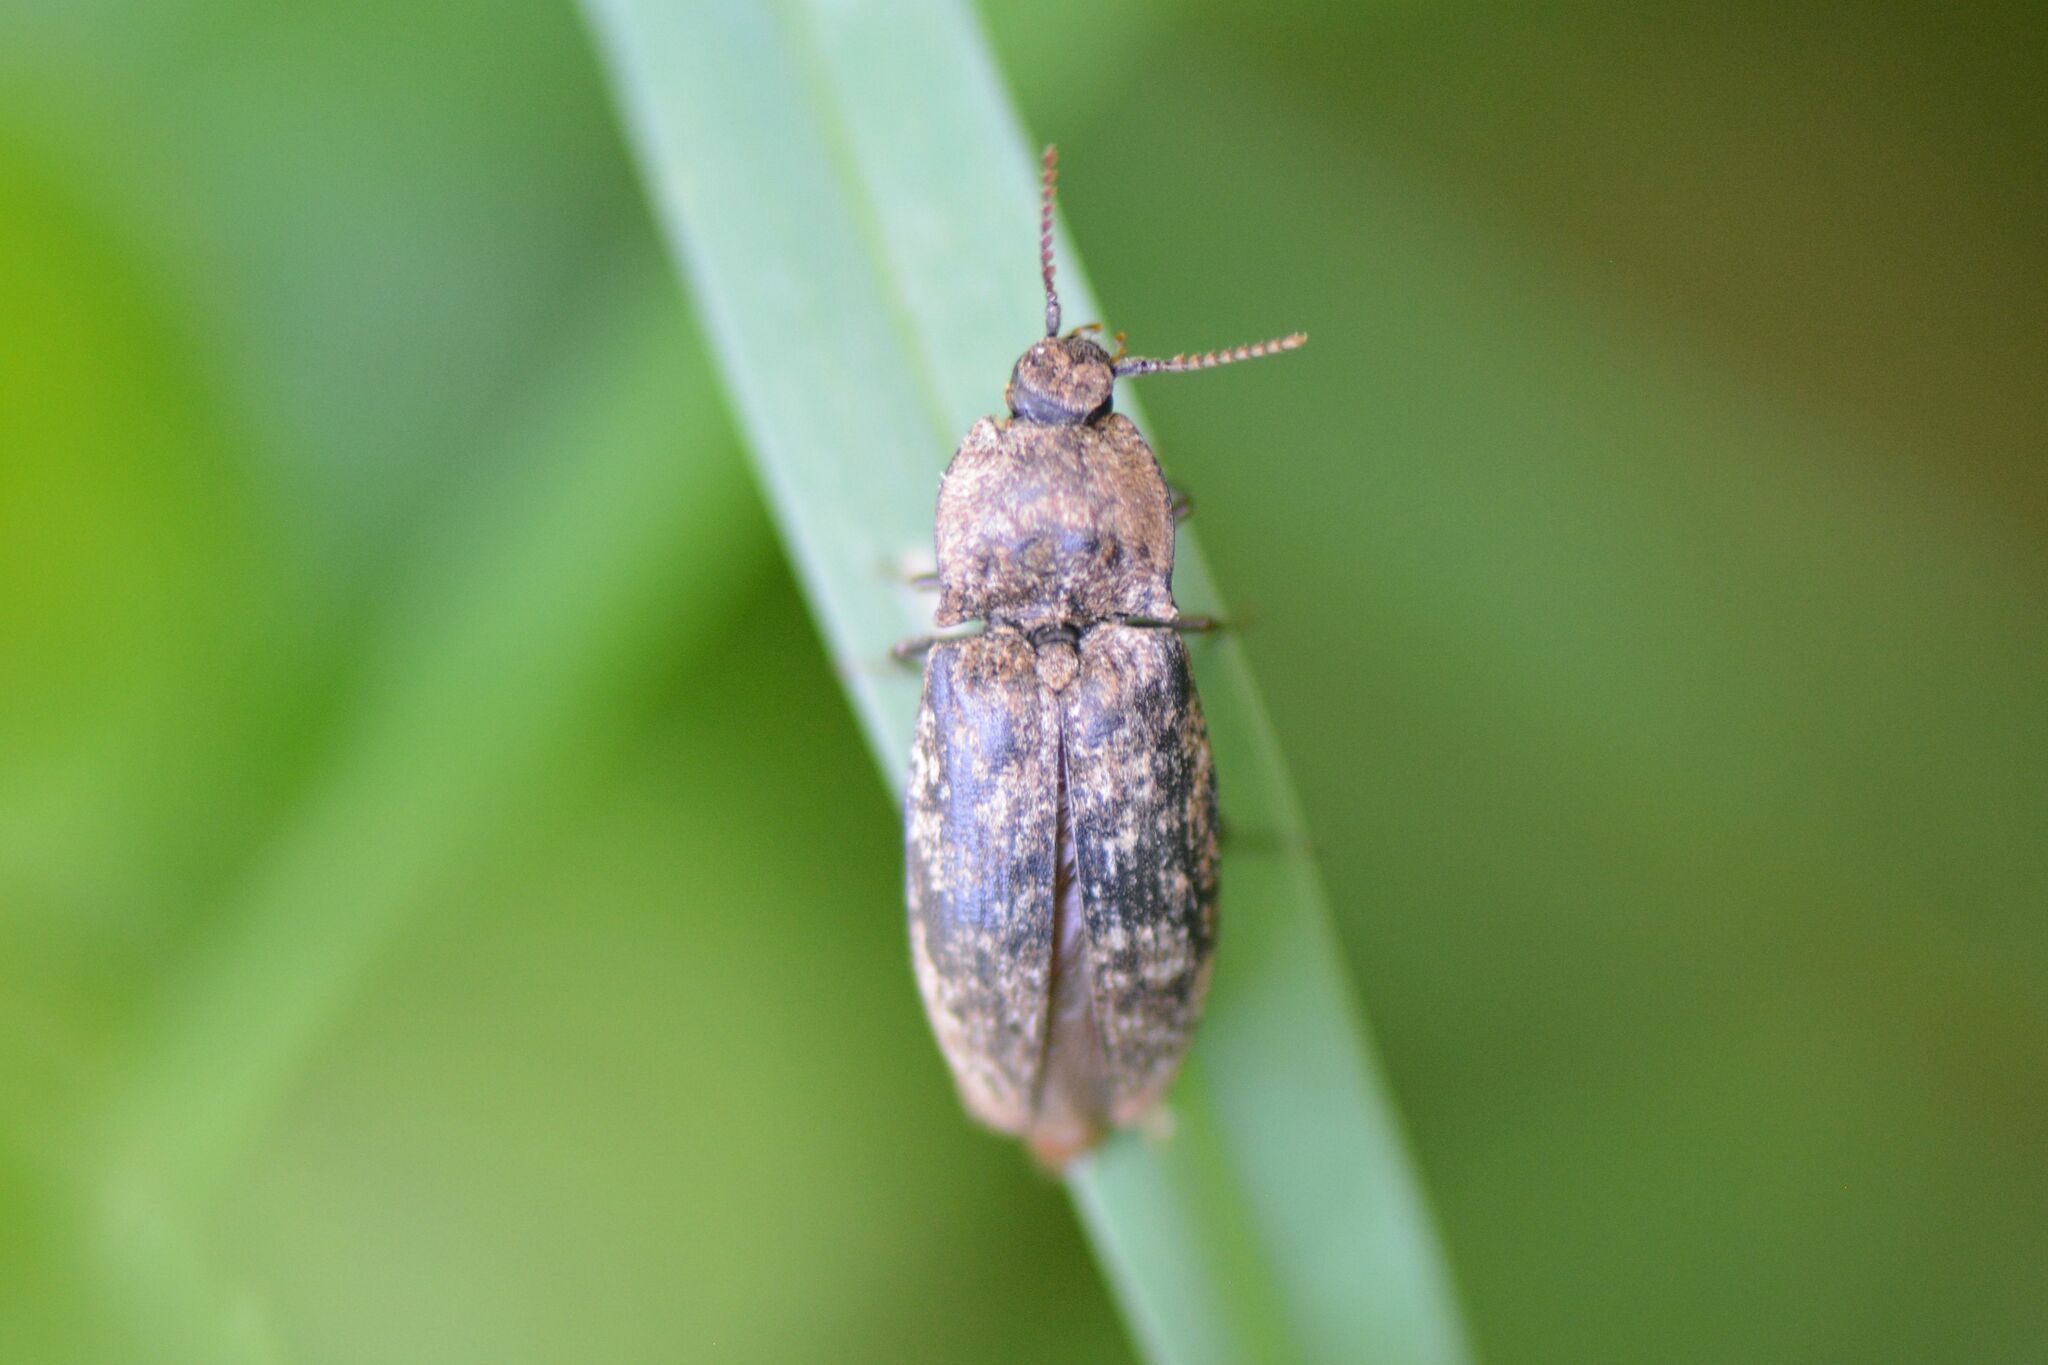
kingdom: Animalia
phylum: Arthropoda
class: Insecta
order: Coleoptera
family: Elateridae
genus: Agrypnus
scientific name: Agrypnus murinus
